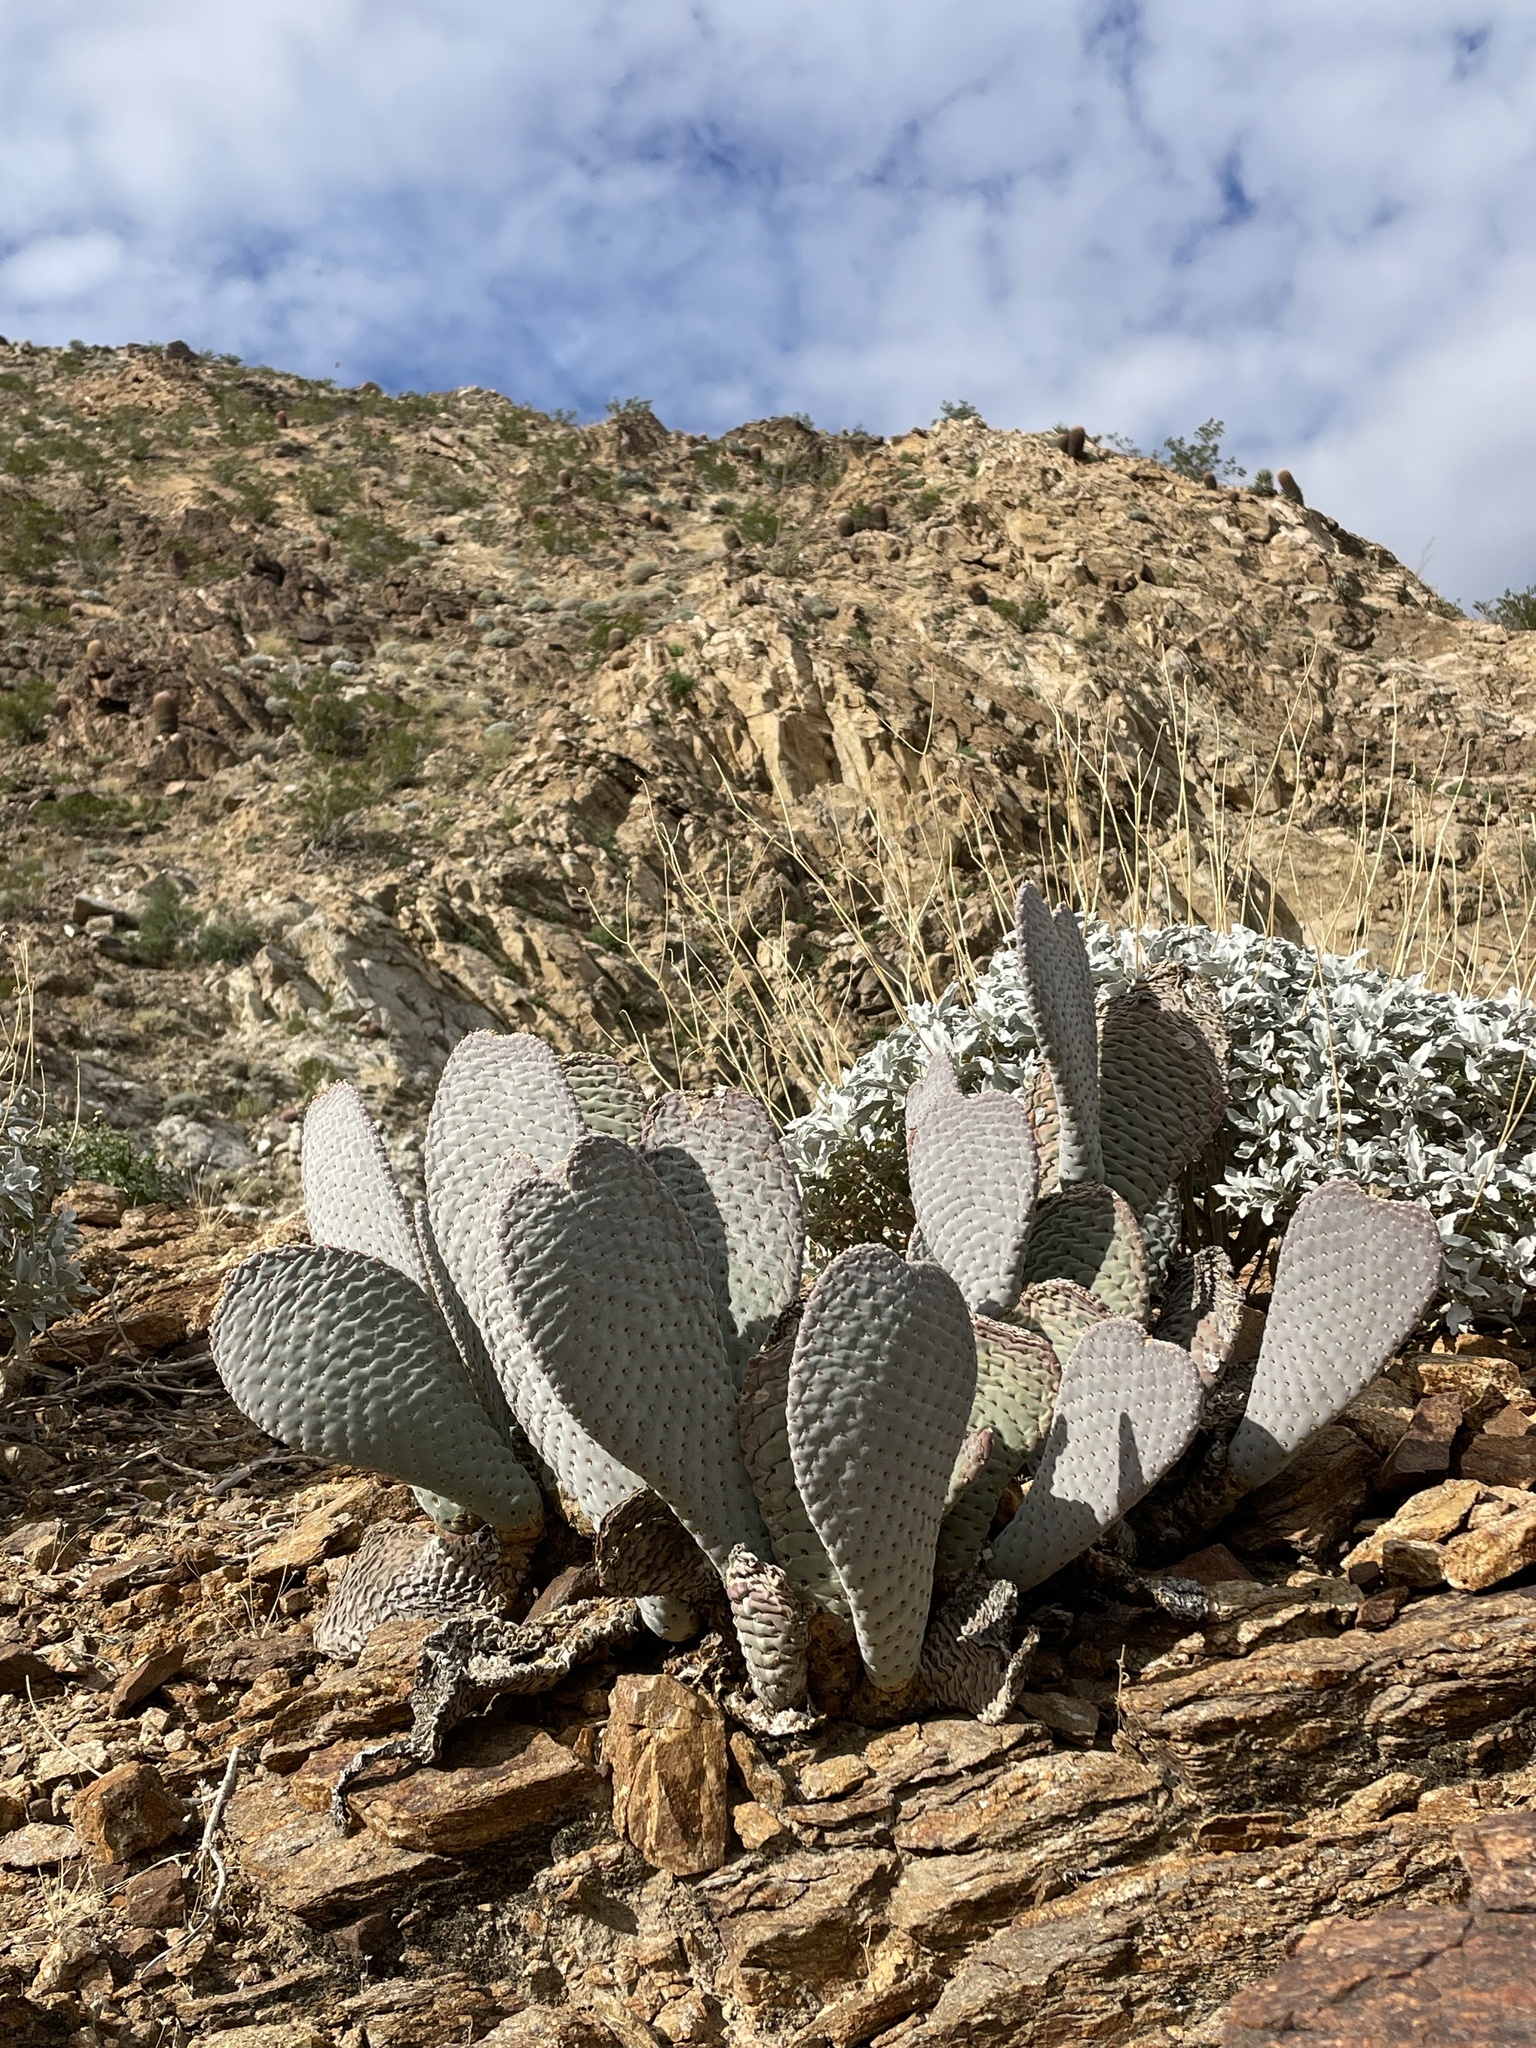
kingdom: Plantae
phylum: Tracheophyta
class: Magnoliopsida
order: Caryophyllales
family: Cactaceae
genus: Opuntia
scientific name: Opuntia basilaris
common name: Beavertail prickly-pear
